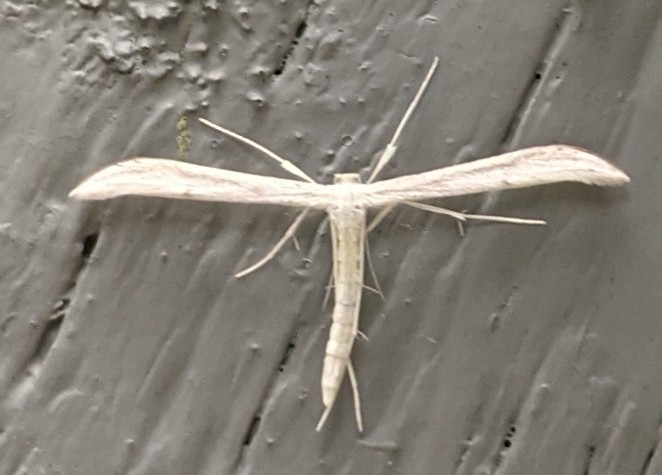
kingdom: Animalia
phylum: Arthropoda
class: Insecta
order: Lepidoptera
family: Pterophoridae
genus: Hellinsia
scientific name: Hellinsia homodactylus
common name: Plain plume moth
